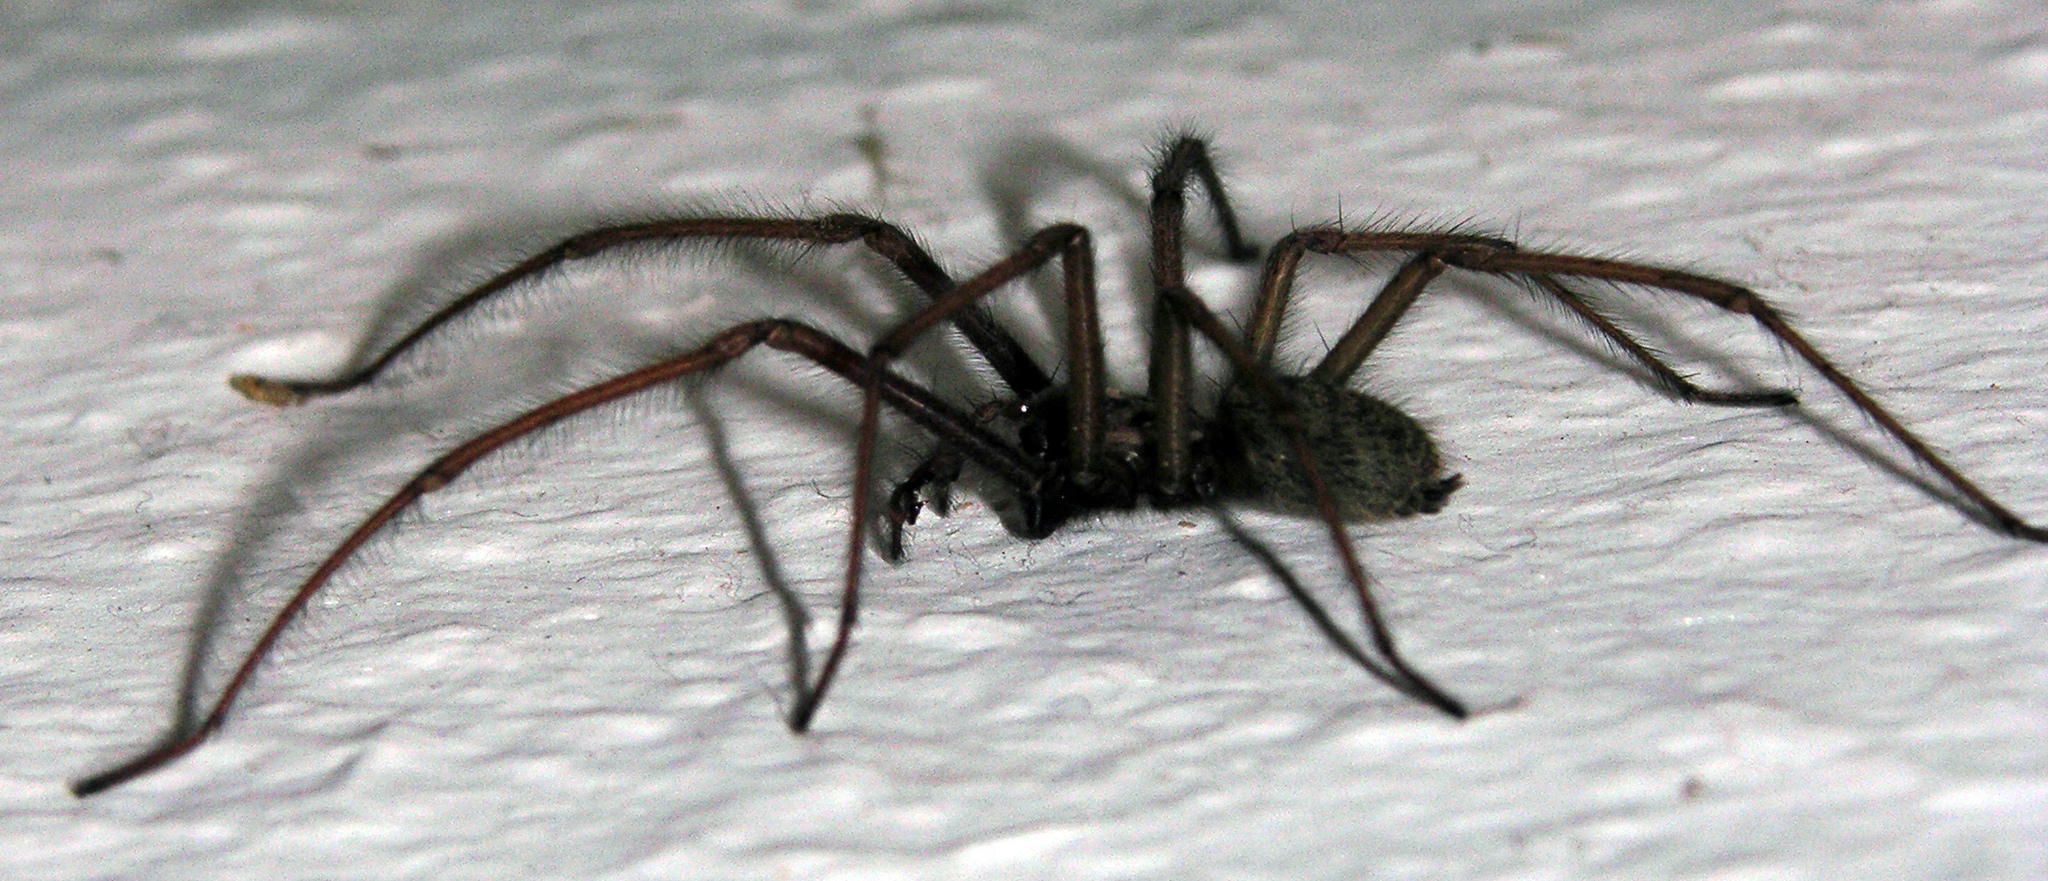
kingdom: Animalia
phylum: Arthropoda
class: Arachnida
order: Araneae
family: Agelenidae
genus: Eratigena
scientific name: Eratigena atrica
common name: Giant house spider
